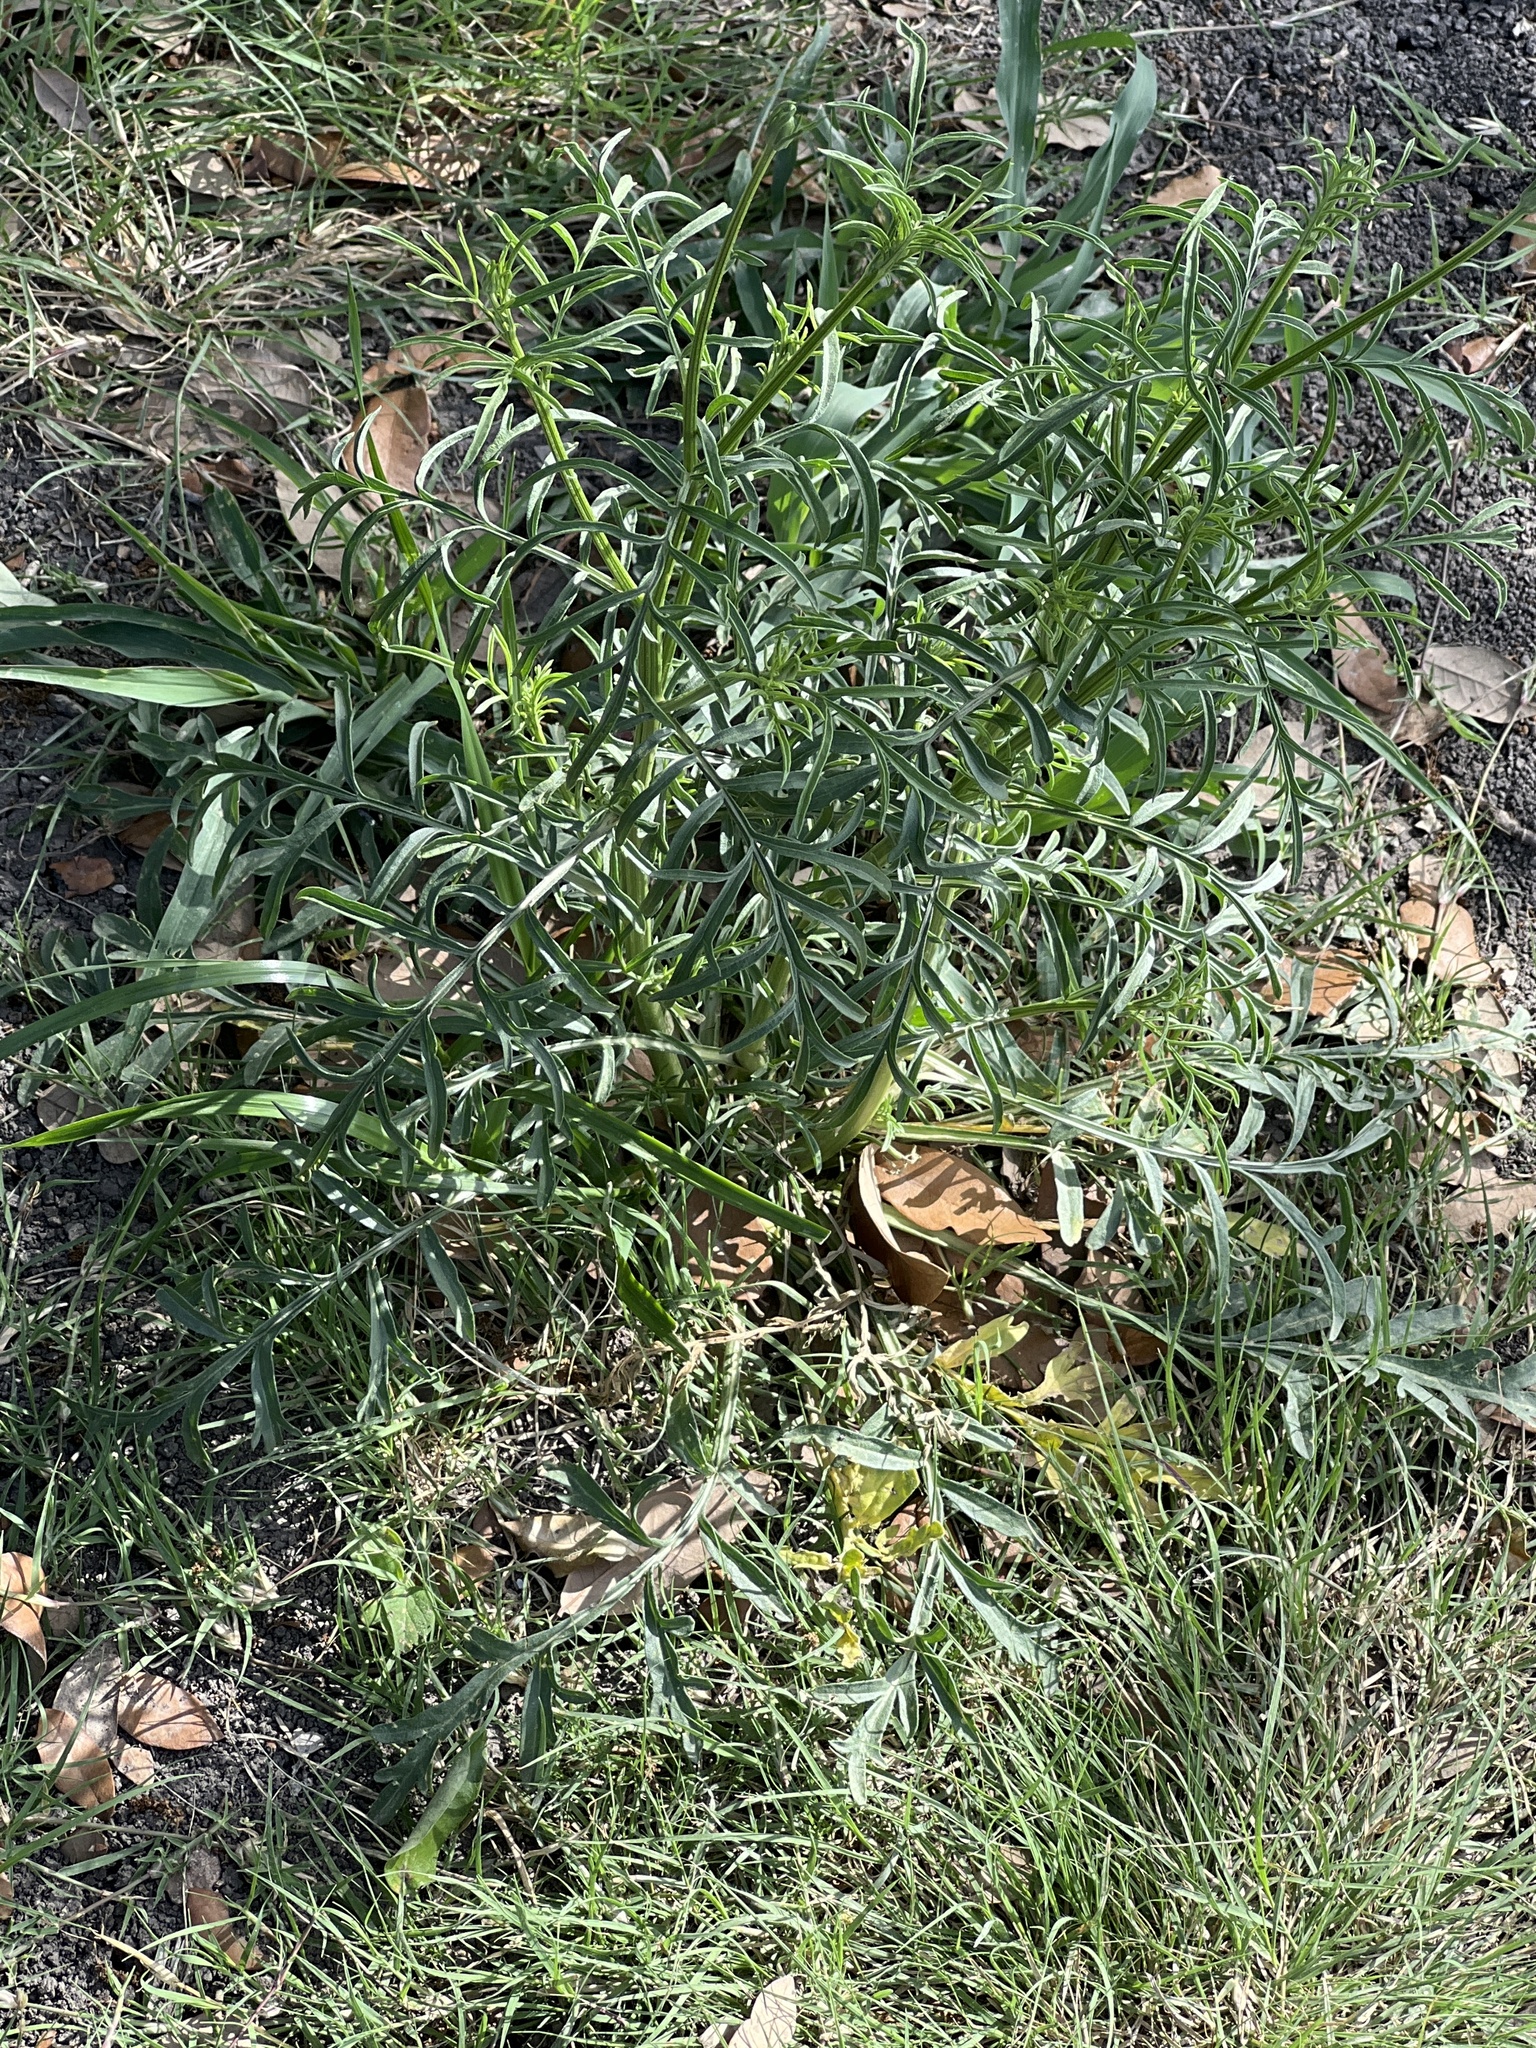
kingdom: Plantae
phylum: Tracheophyta
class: Magnoliopsida
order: Asterales
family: Asteraceae
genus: Ratibida
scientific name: Ratibida columnifera
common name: Prairie coneflower
